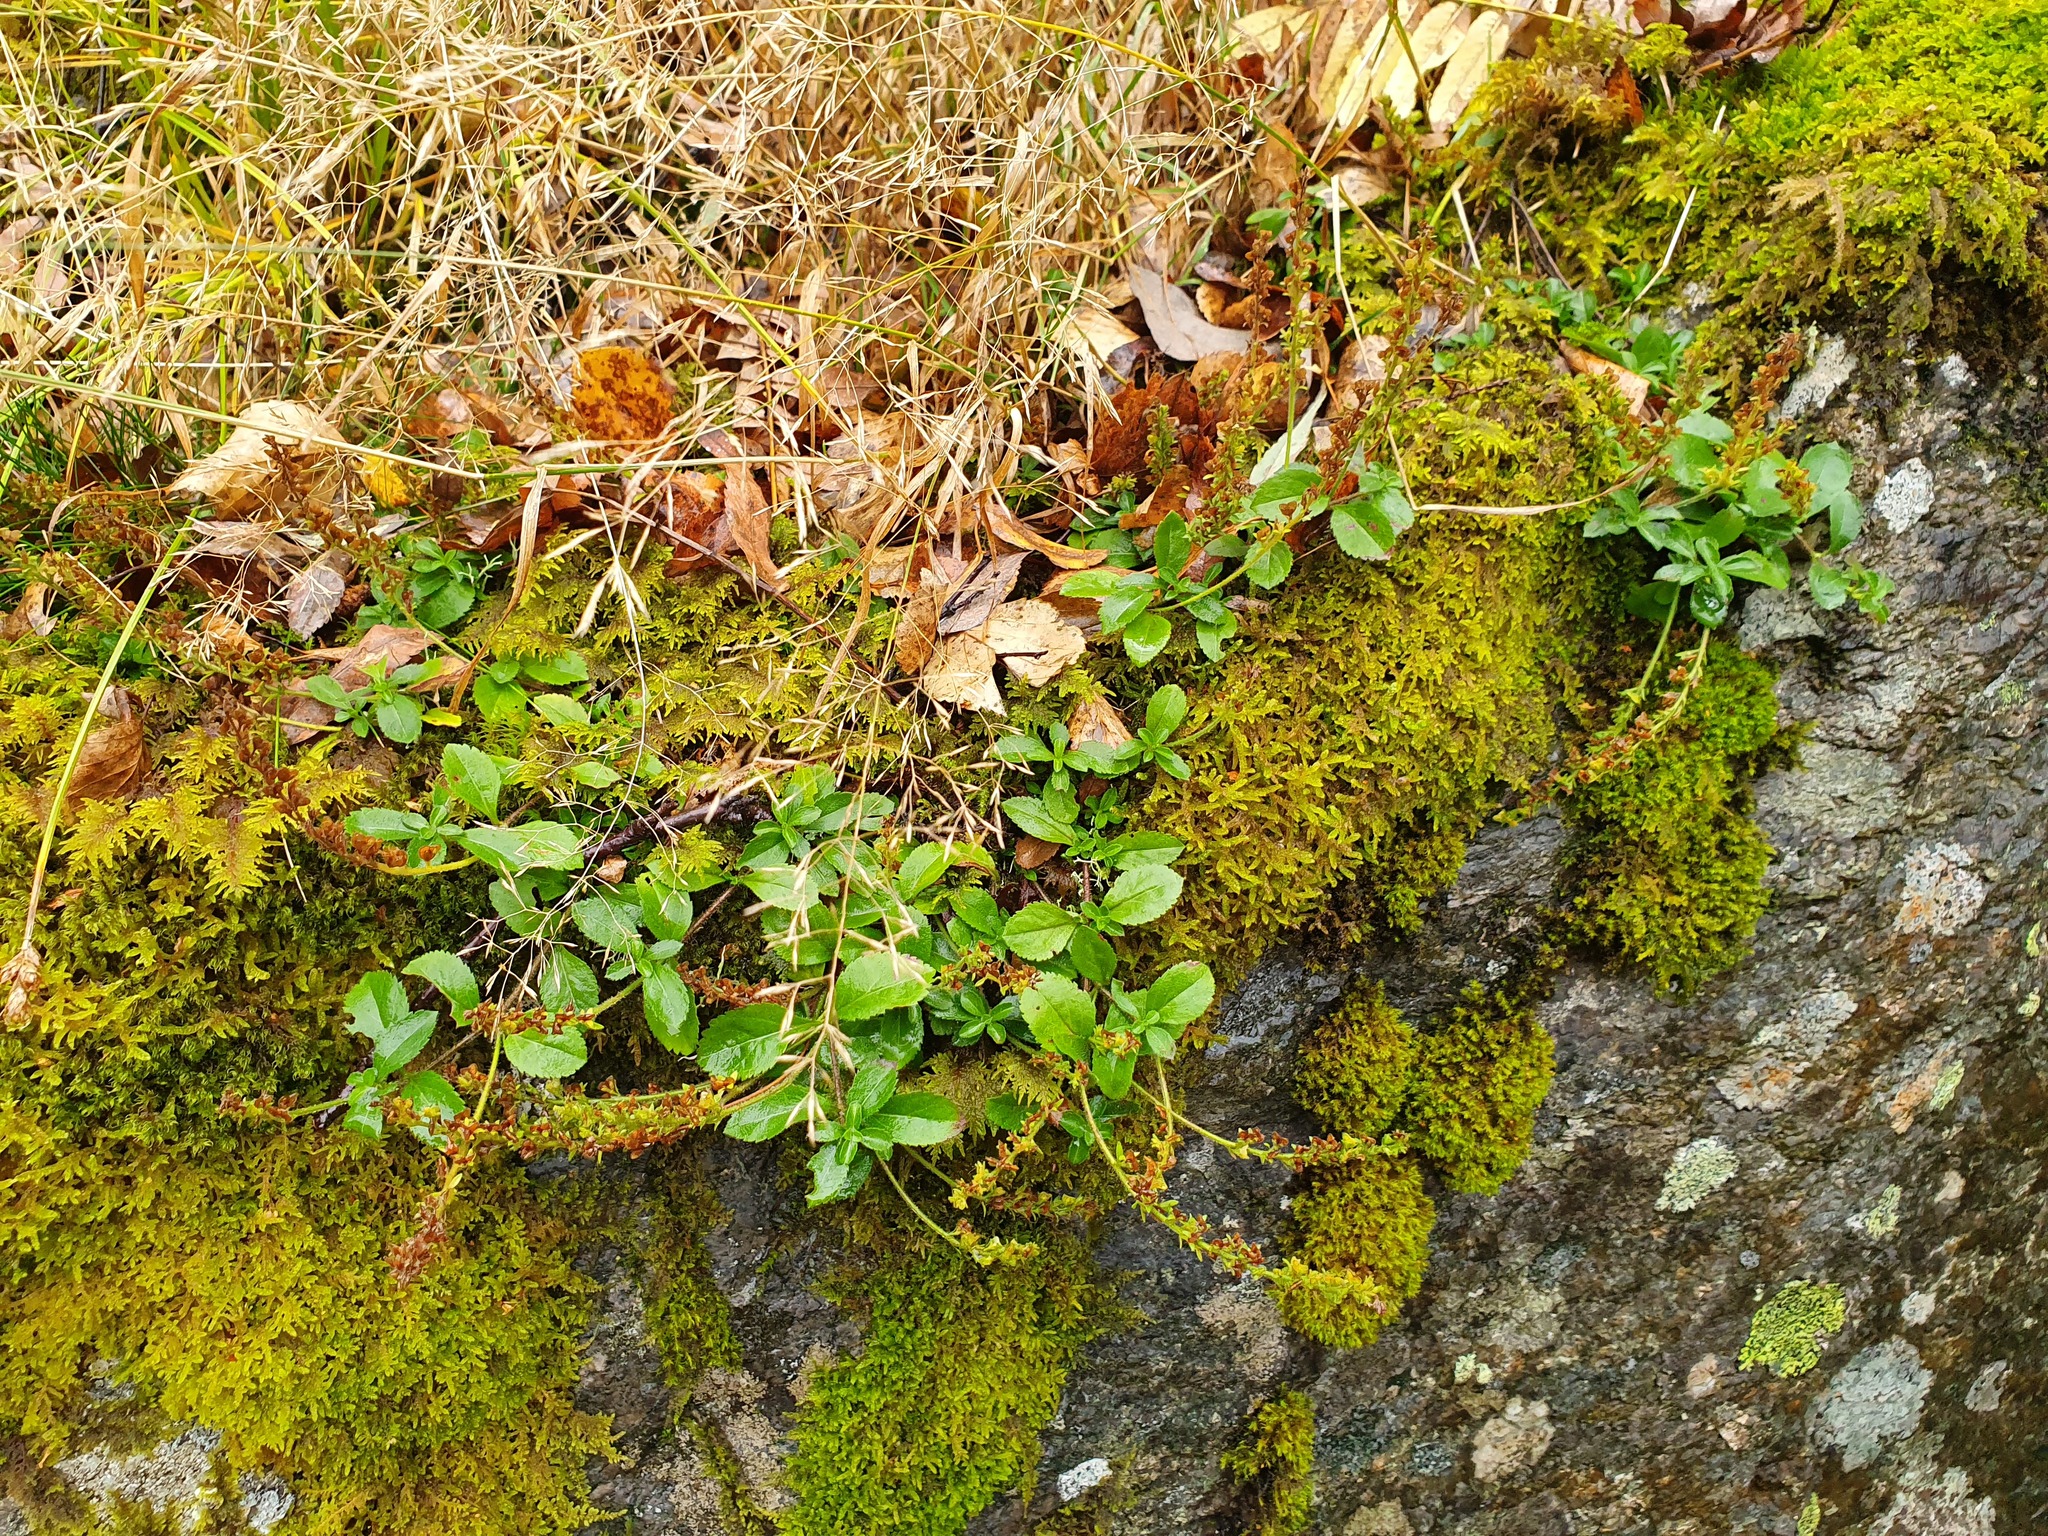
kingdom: Plantae
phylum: Tracheophyta
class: Magnoliopsida
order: Lamiales
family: Plantaginaceae
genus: Veronica
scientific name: Veronica officinalis
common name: Common speedwell
